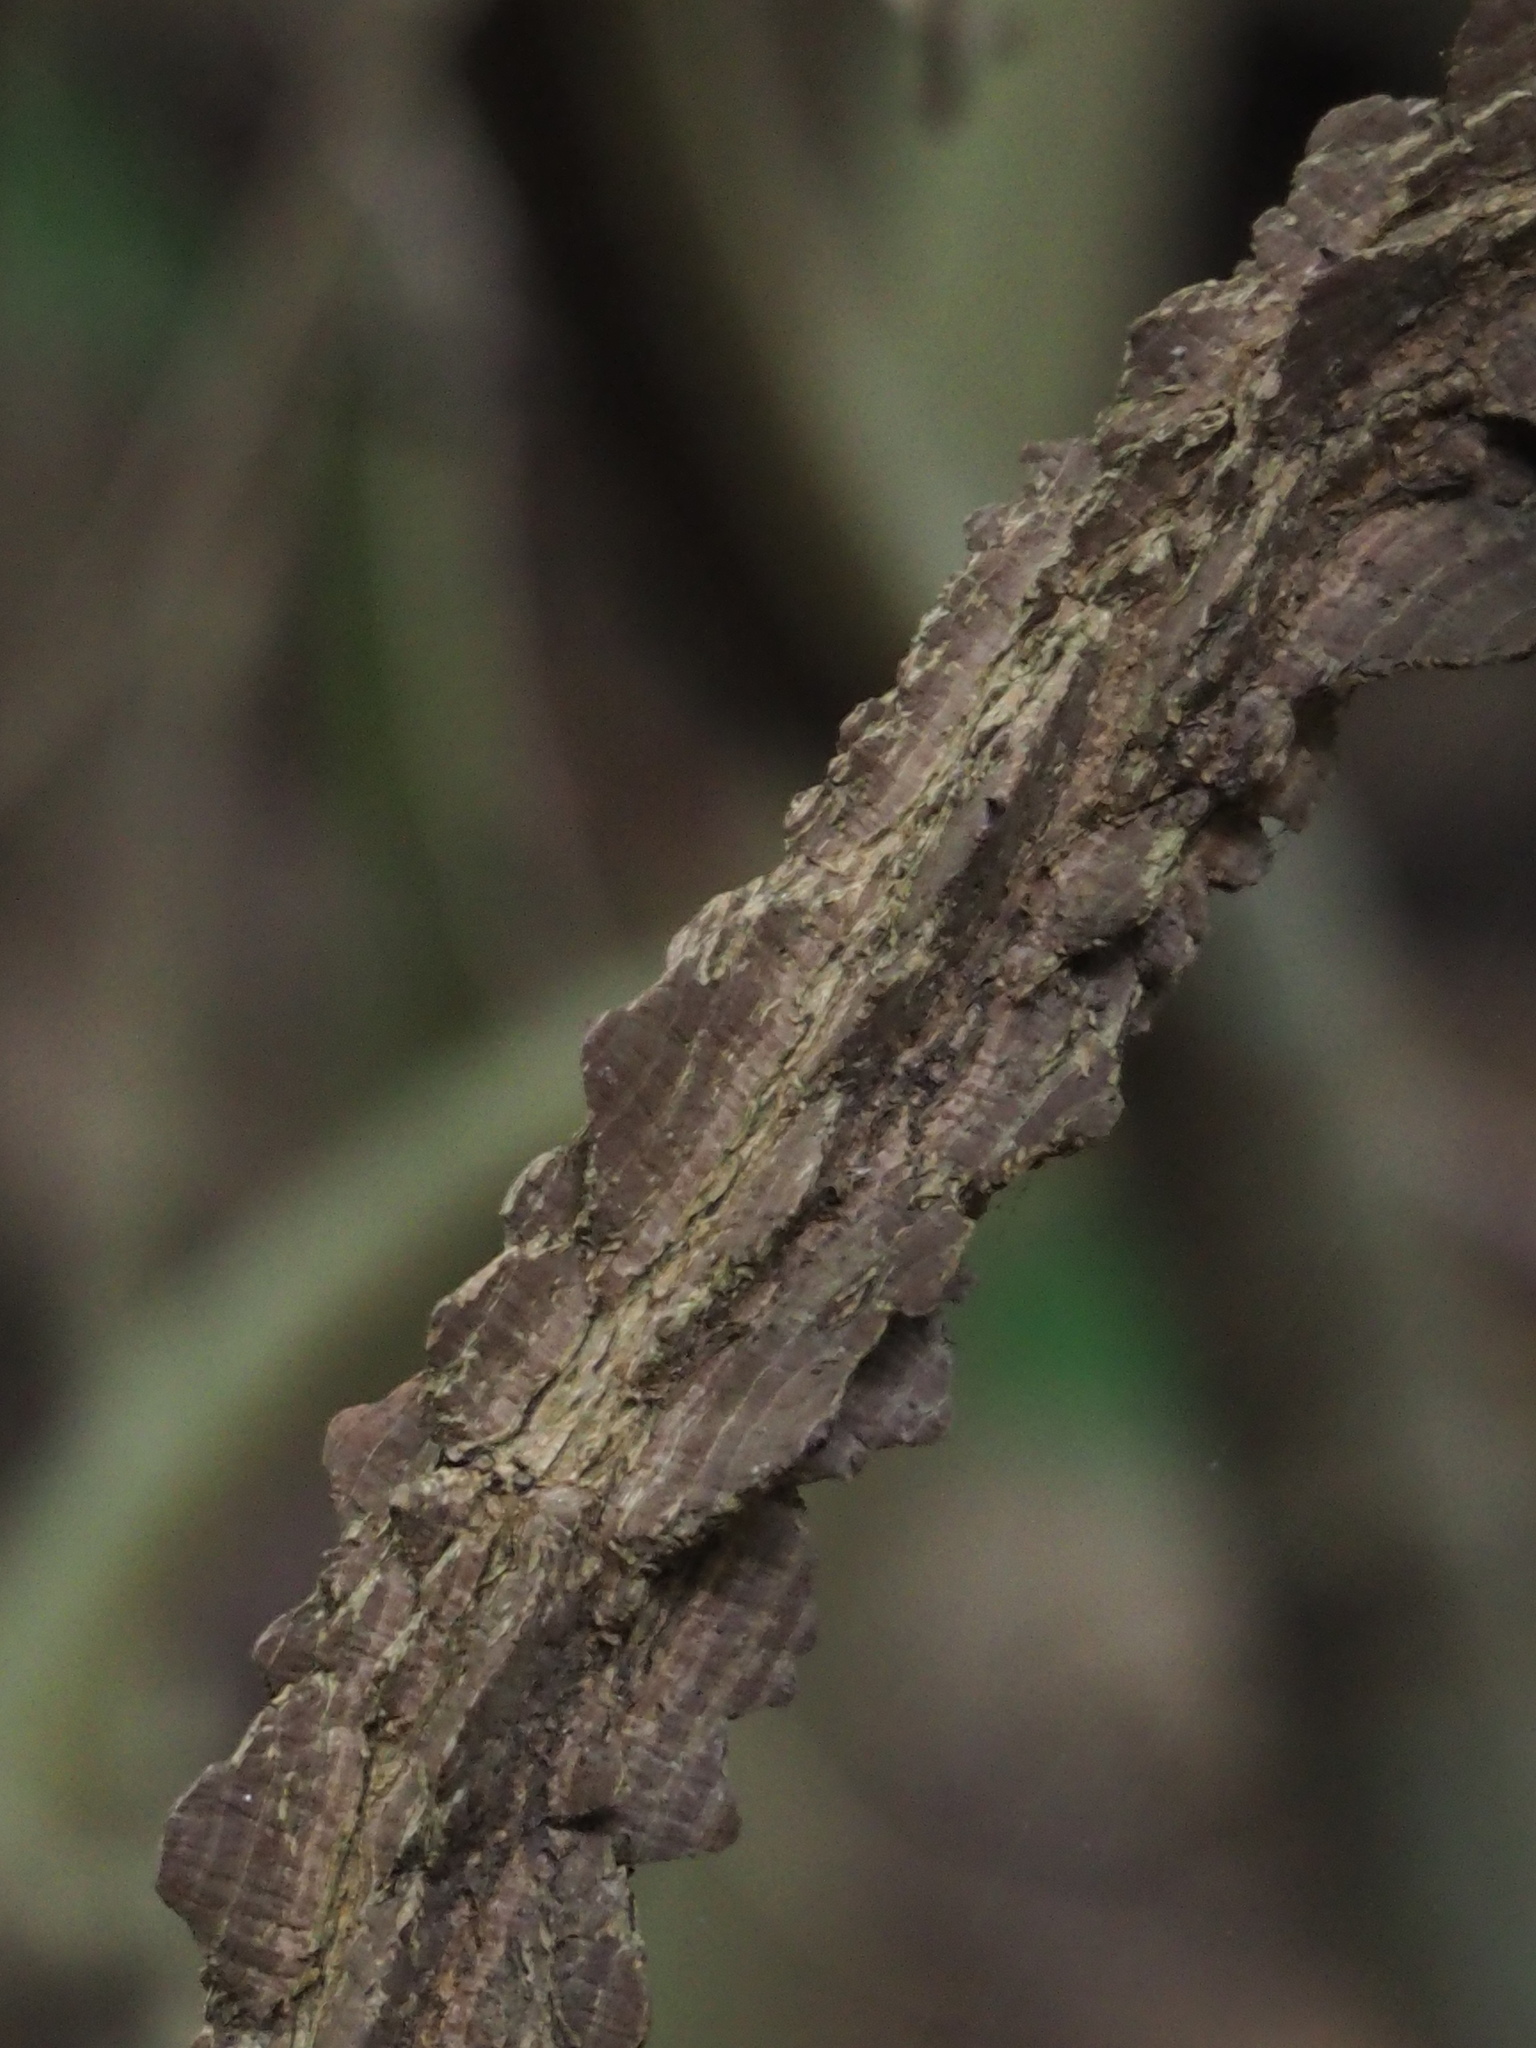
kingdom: Plantae
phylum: Tracheophyta
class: Magnoliopsida
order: Sapindales
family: Rutaceae
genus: Zanthoxylum
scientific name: Zanthoxylum nitidum
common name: Shiny-leaf prickly-ash
